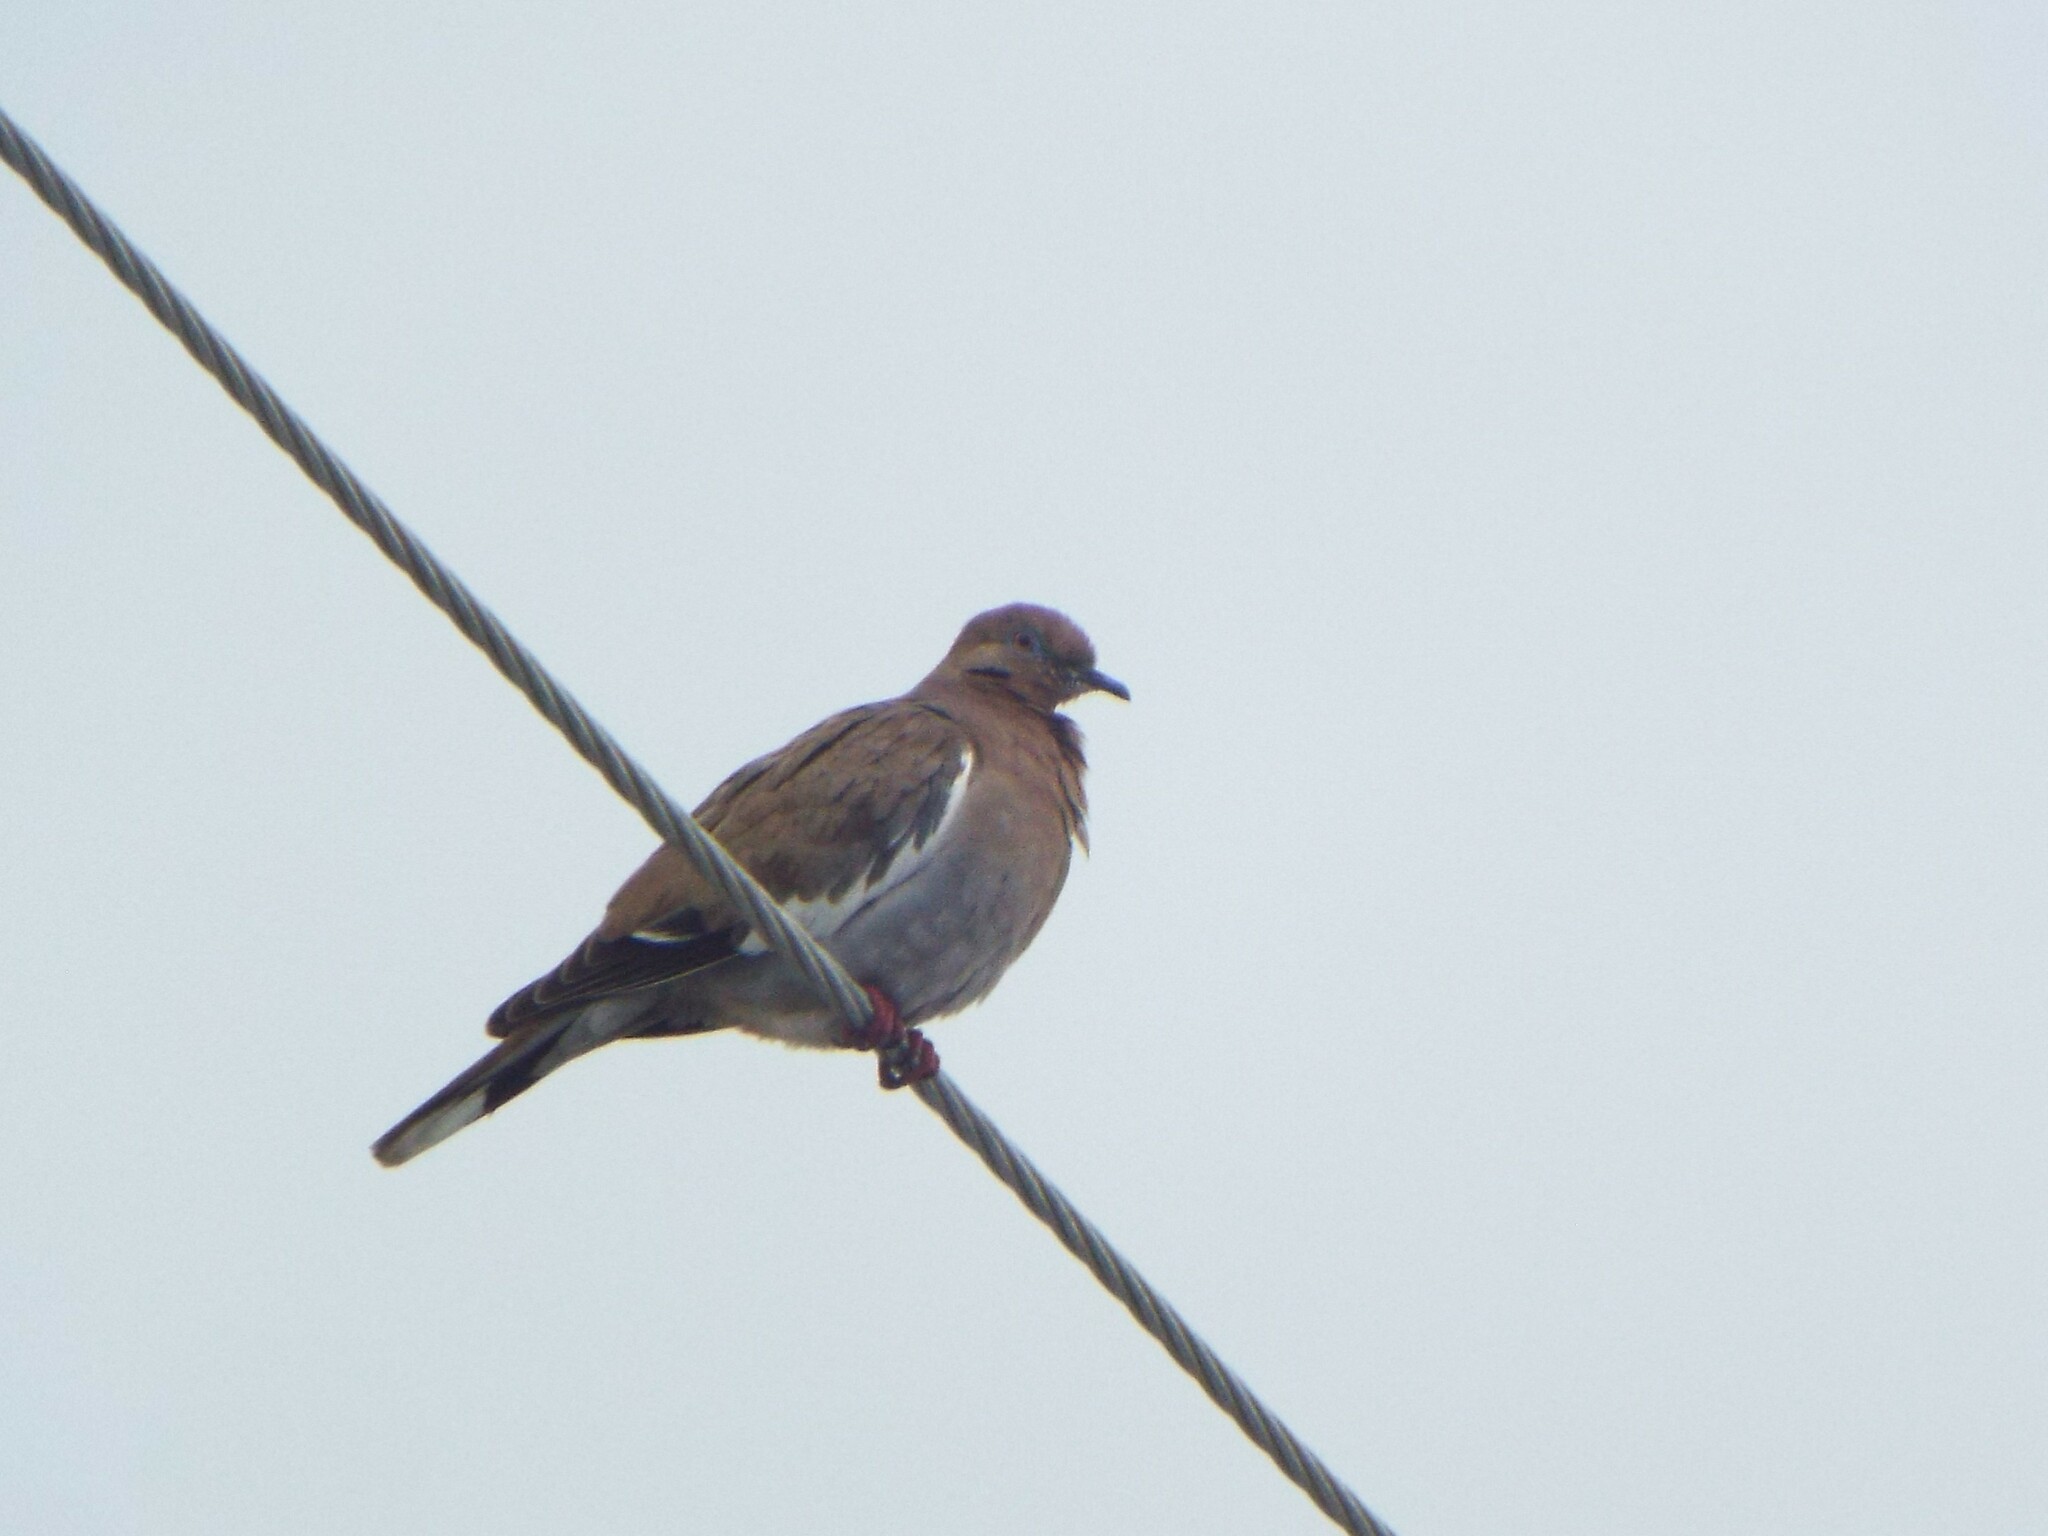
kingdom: Animalia
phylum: Chordata
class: Aves
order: Columbiformes
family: Columbidae
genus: Zenaida
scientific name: Zenaida asiatica
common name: White-winged dove
